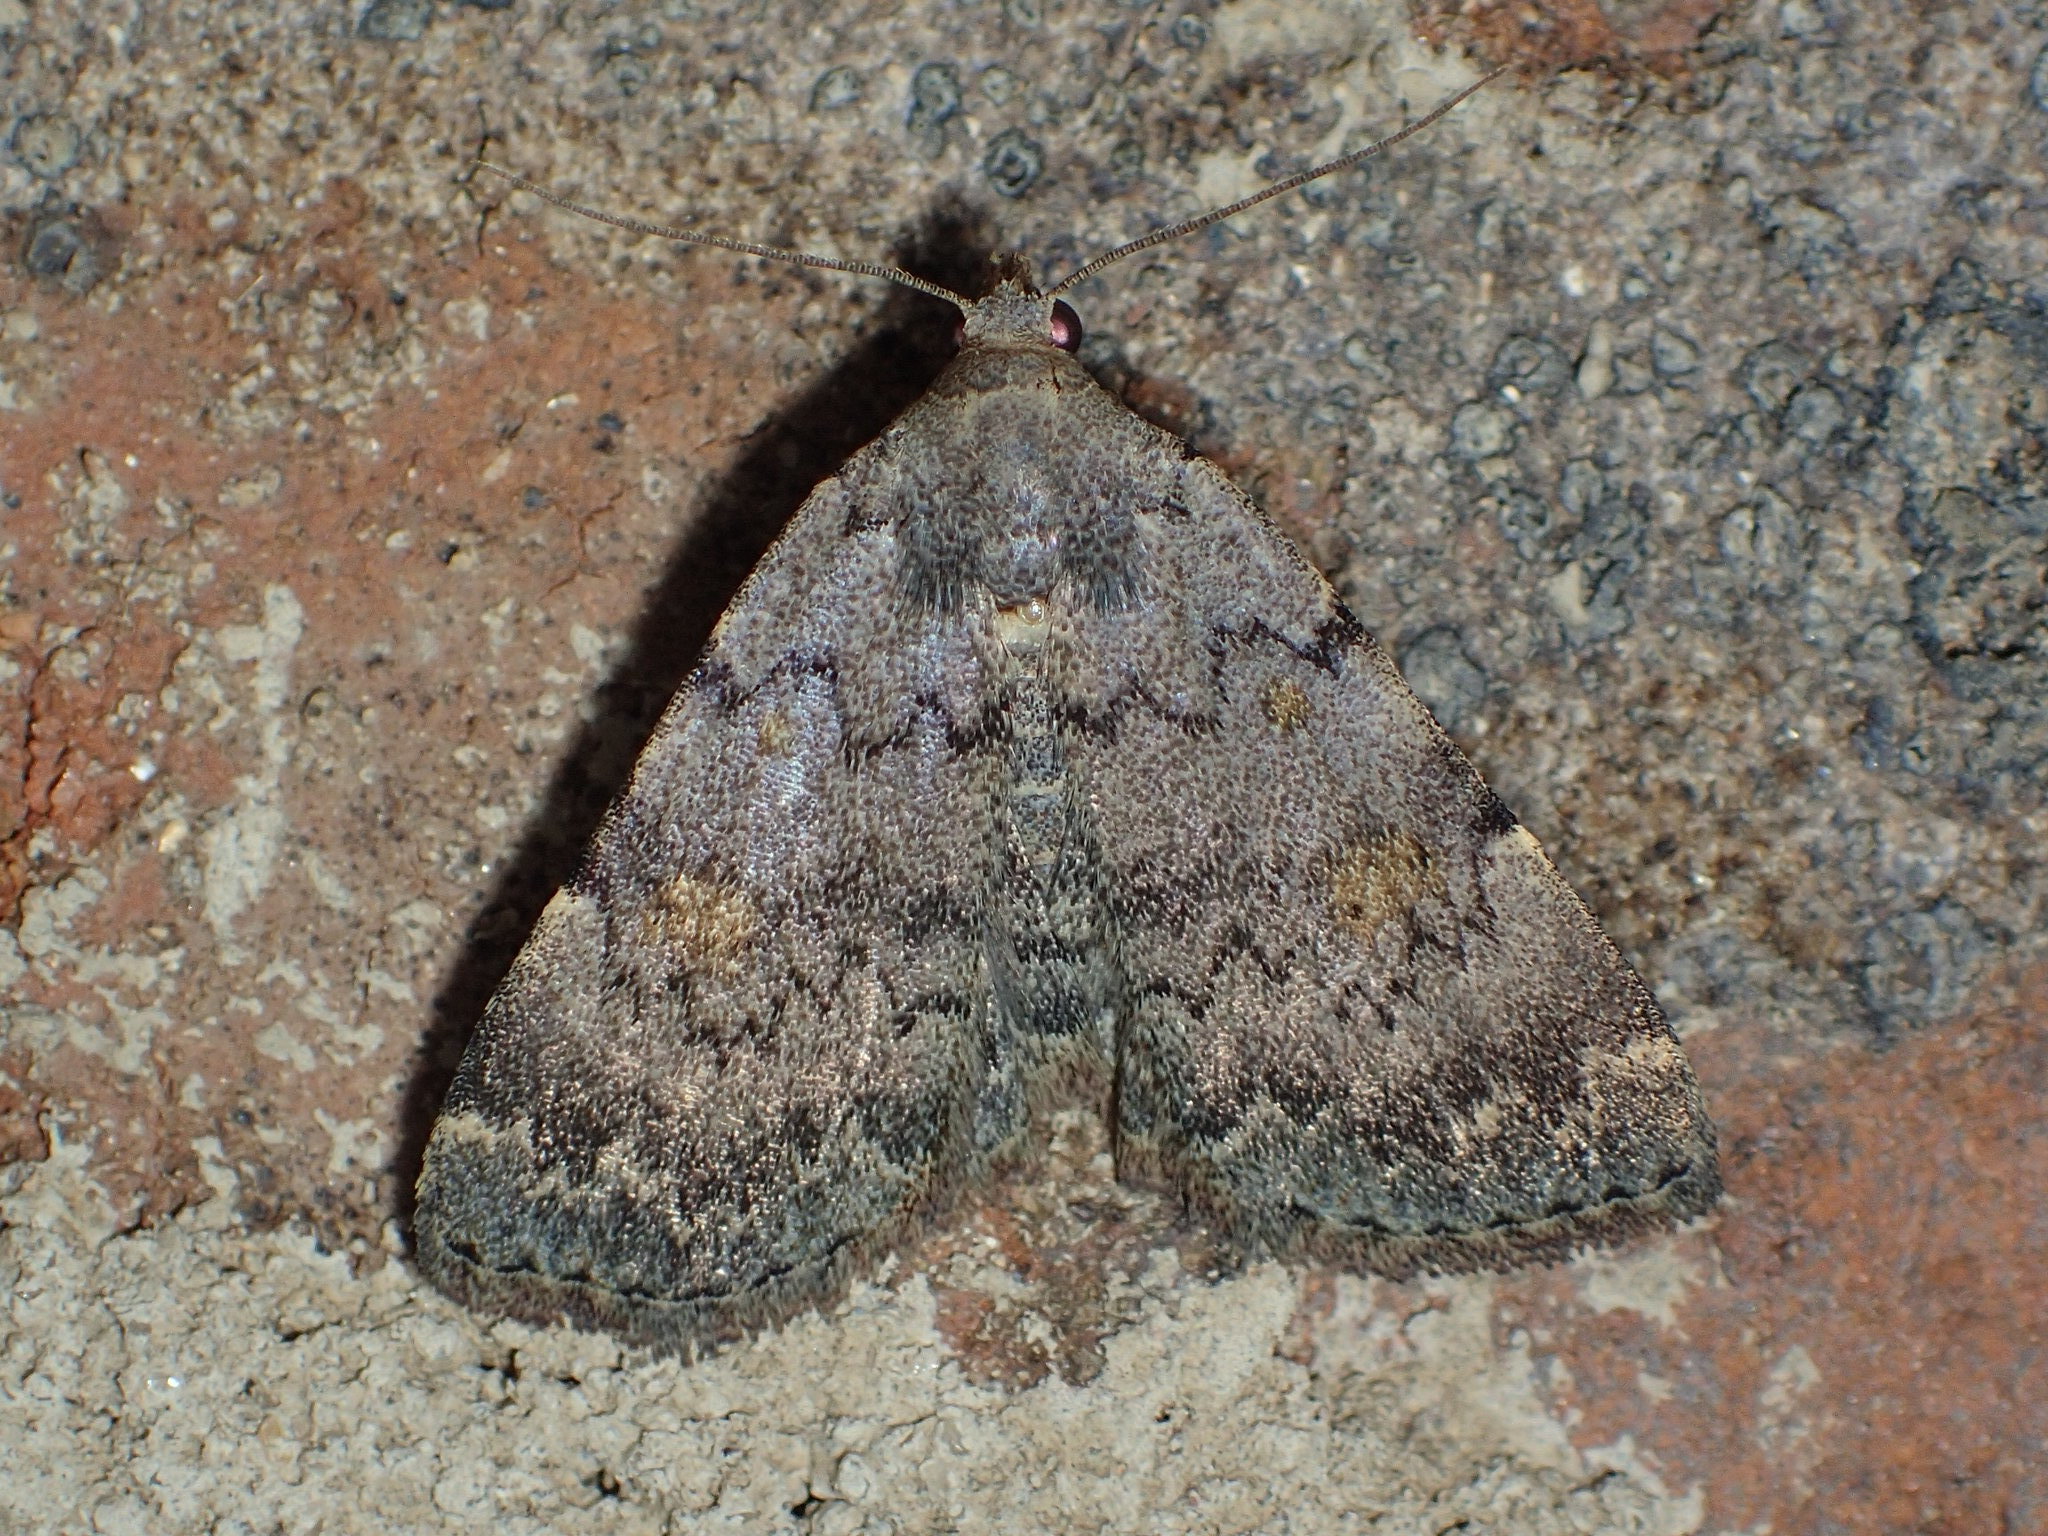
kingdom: Animalia
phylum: Arthropoda
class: Insecta
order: Lepidoptera
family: Erebidae
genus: Idia
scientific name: Idia aemula
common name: Common idia moth
